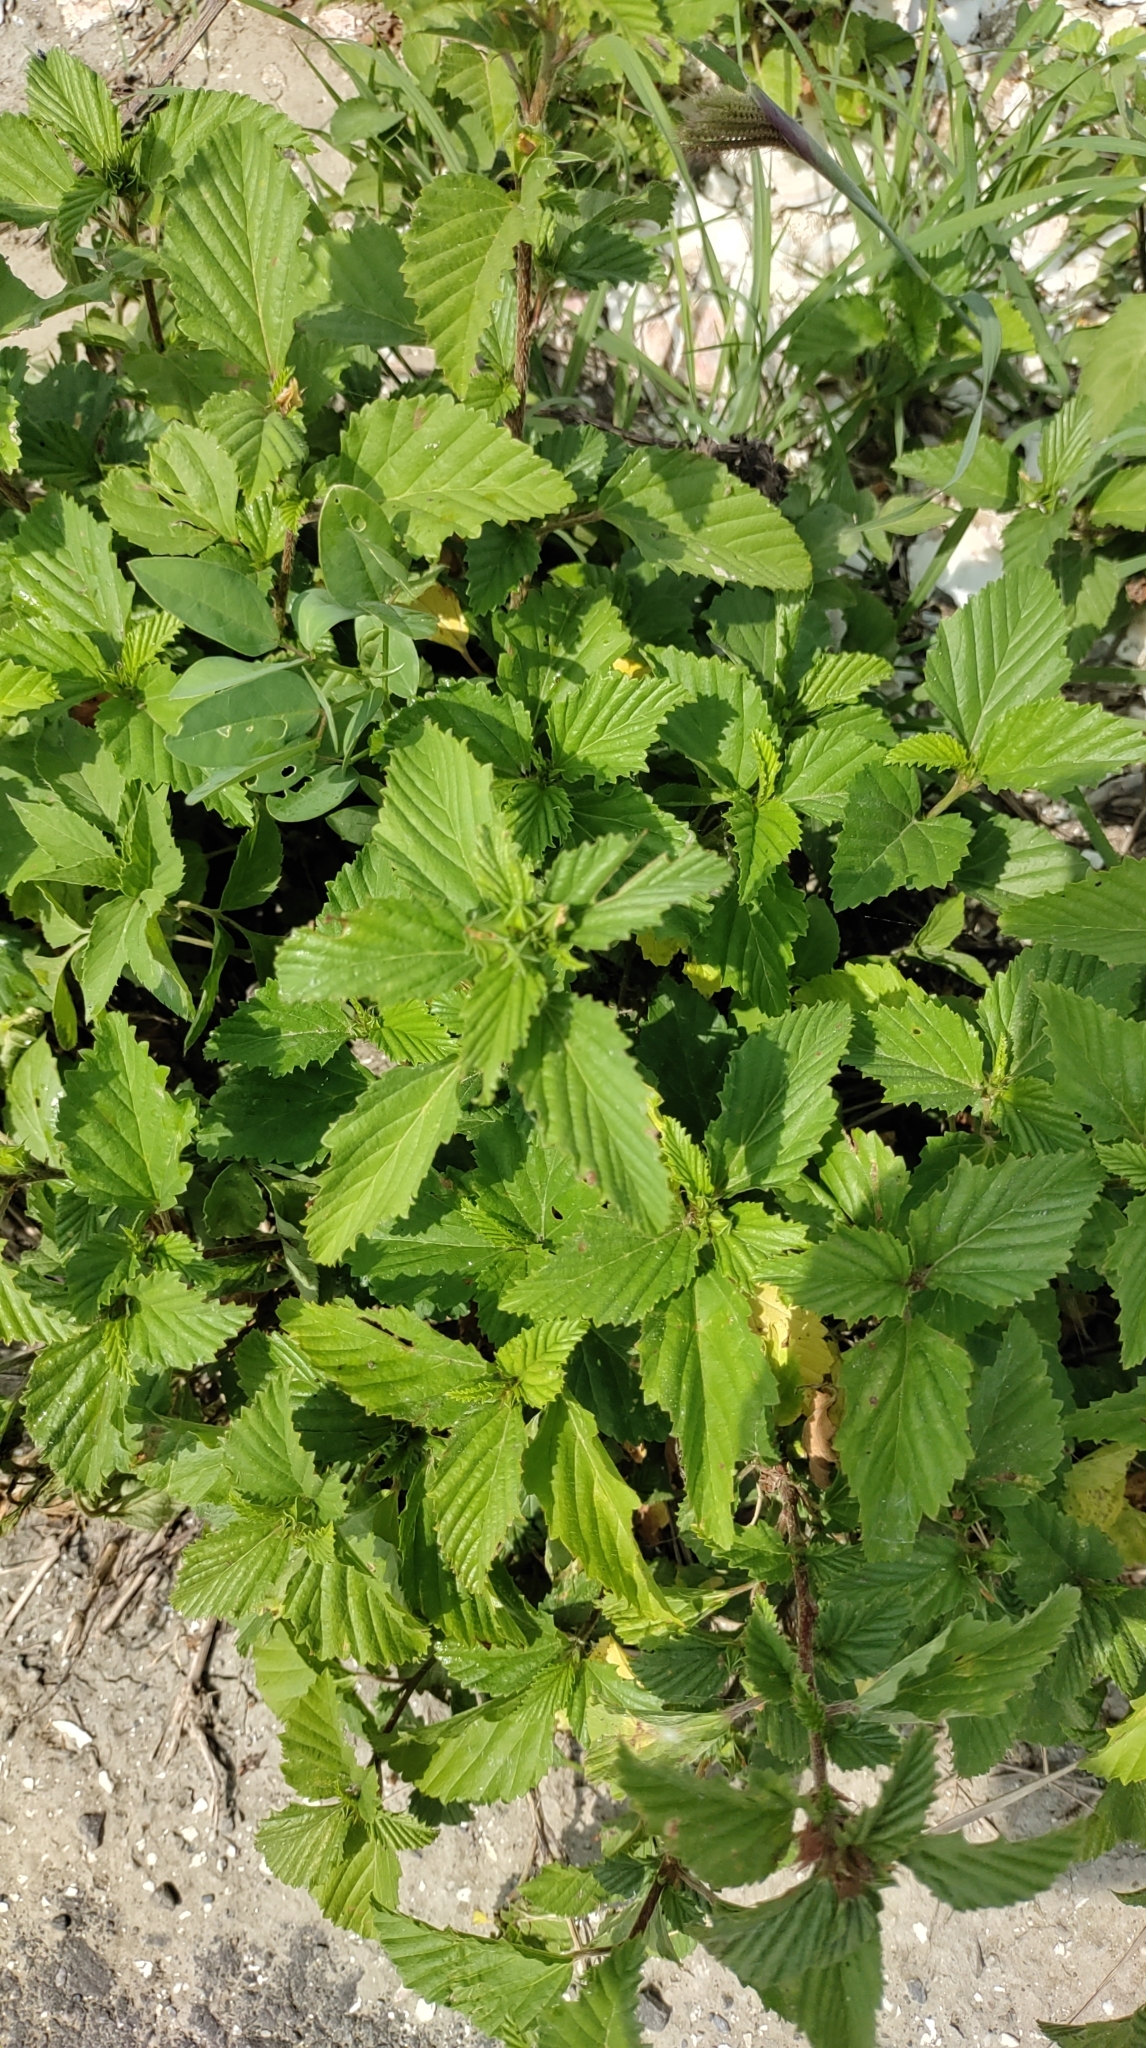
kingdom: Plantae
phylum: Tracheophyta
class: Magnoliopsida
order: Malvales
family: Malvaceae
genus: Malvastrum
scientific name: Malvastrum coromandelianum
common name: Threelobe false mallow
